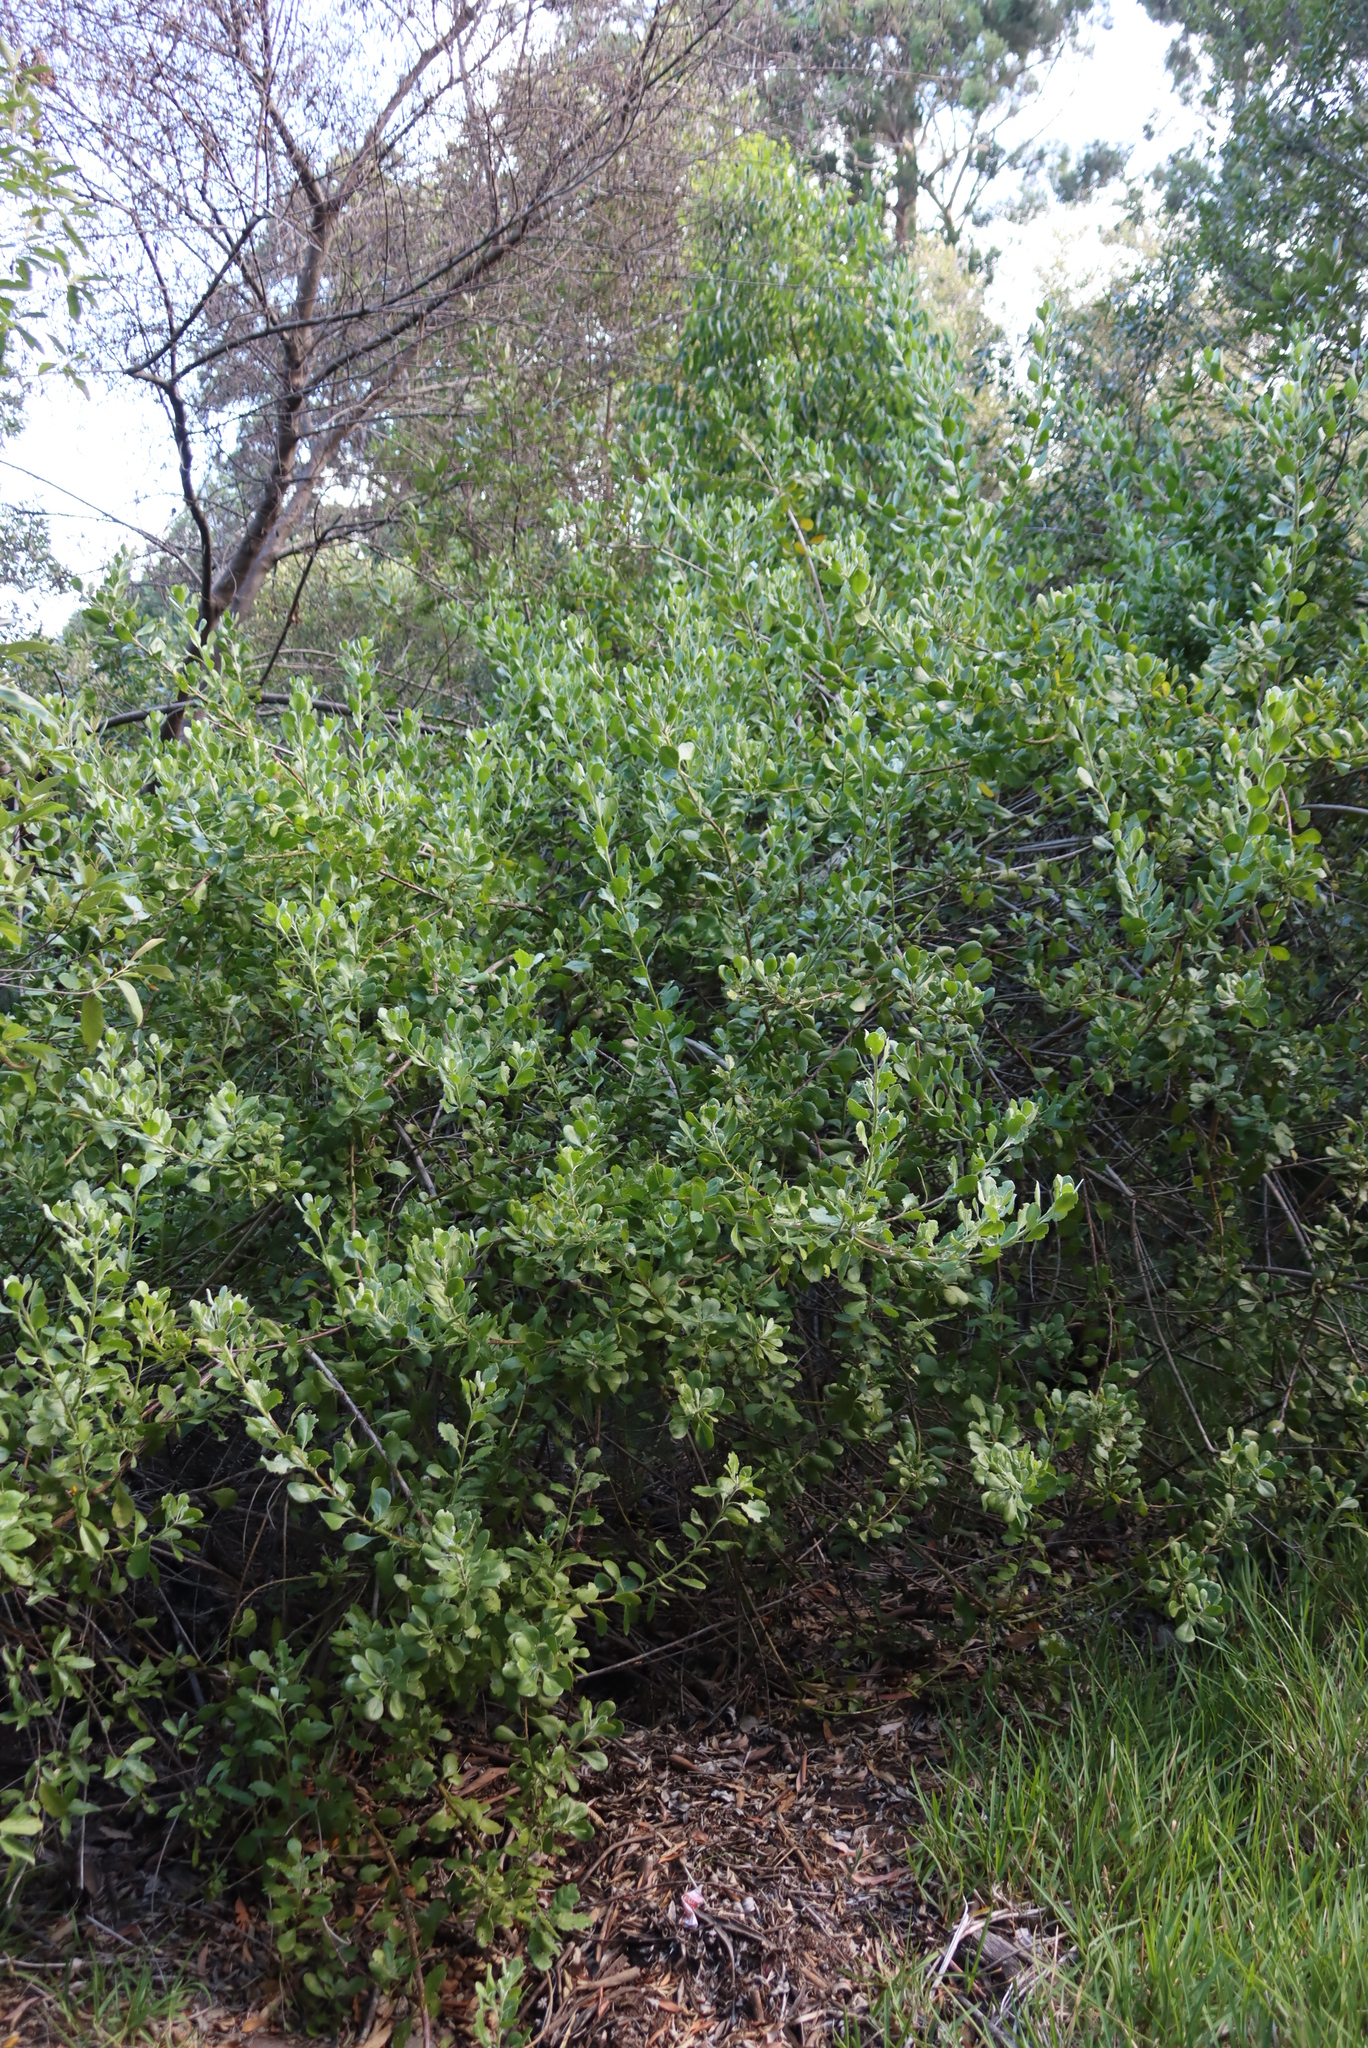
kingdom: Plantae
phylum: Tracheophyta
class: Magnoliopsida
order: Asterales
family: Asteraceae
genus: Osteospermum
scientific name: Osteospermum moniliferum
